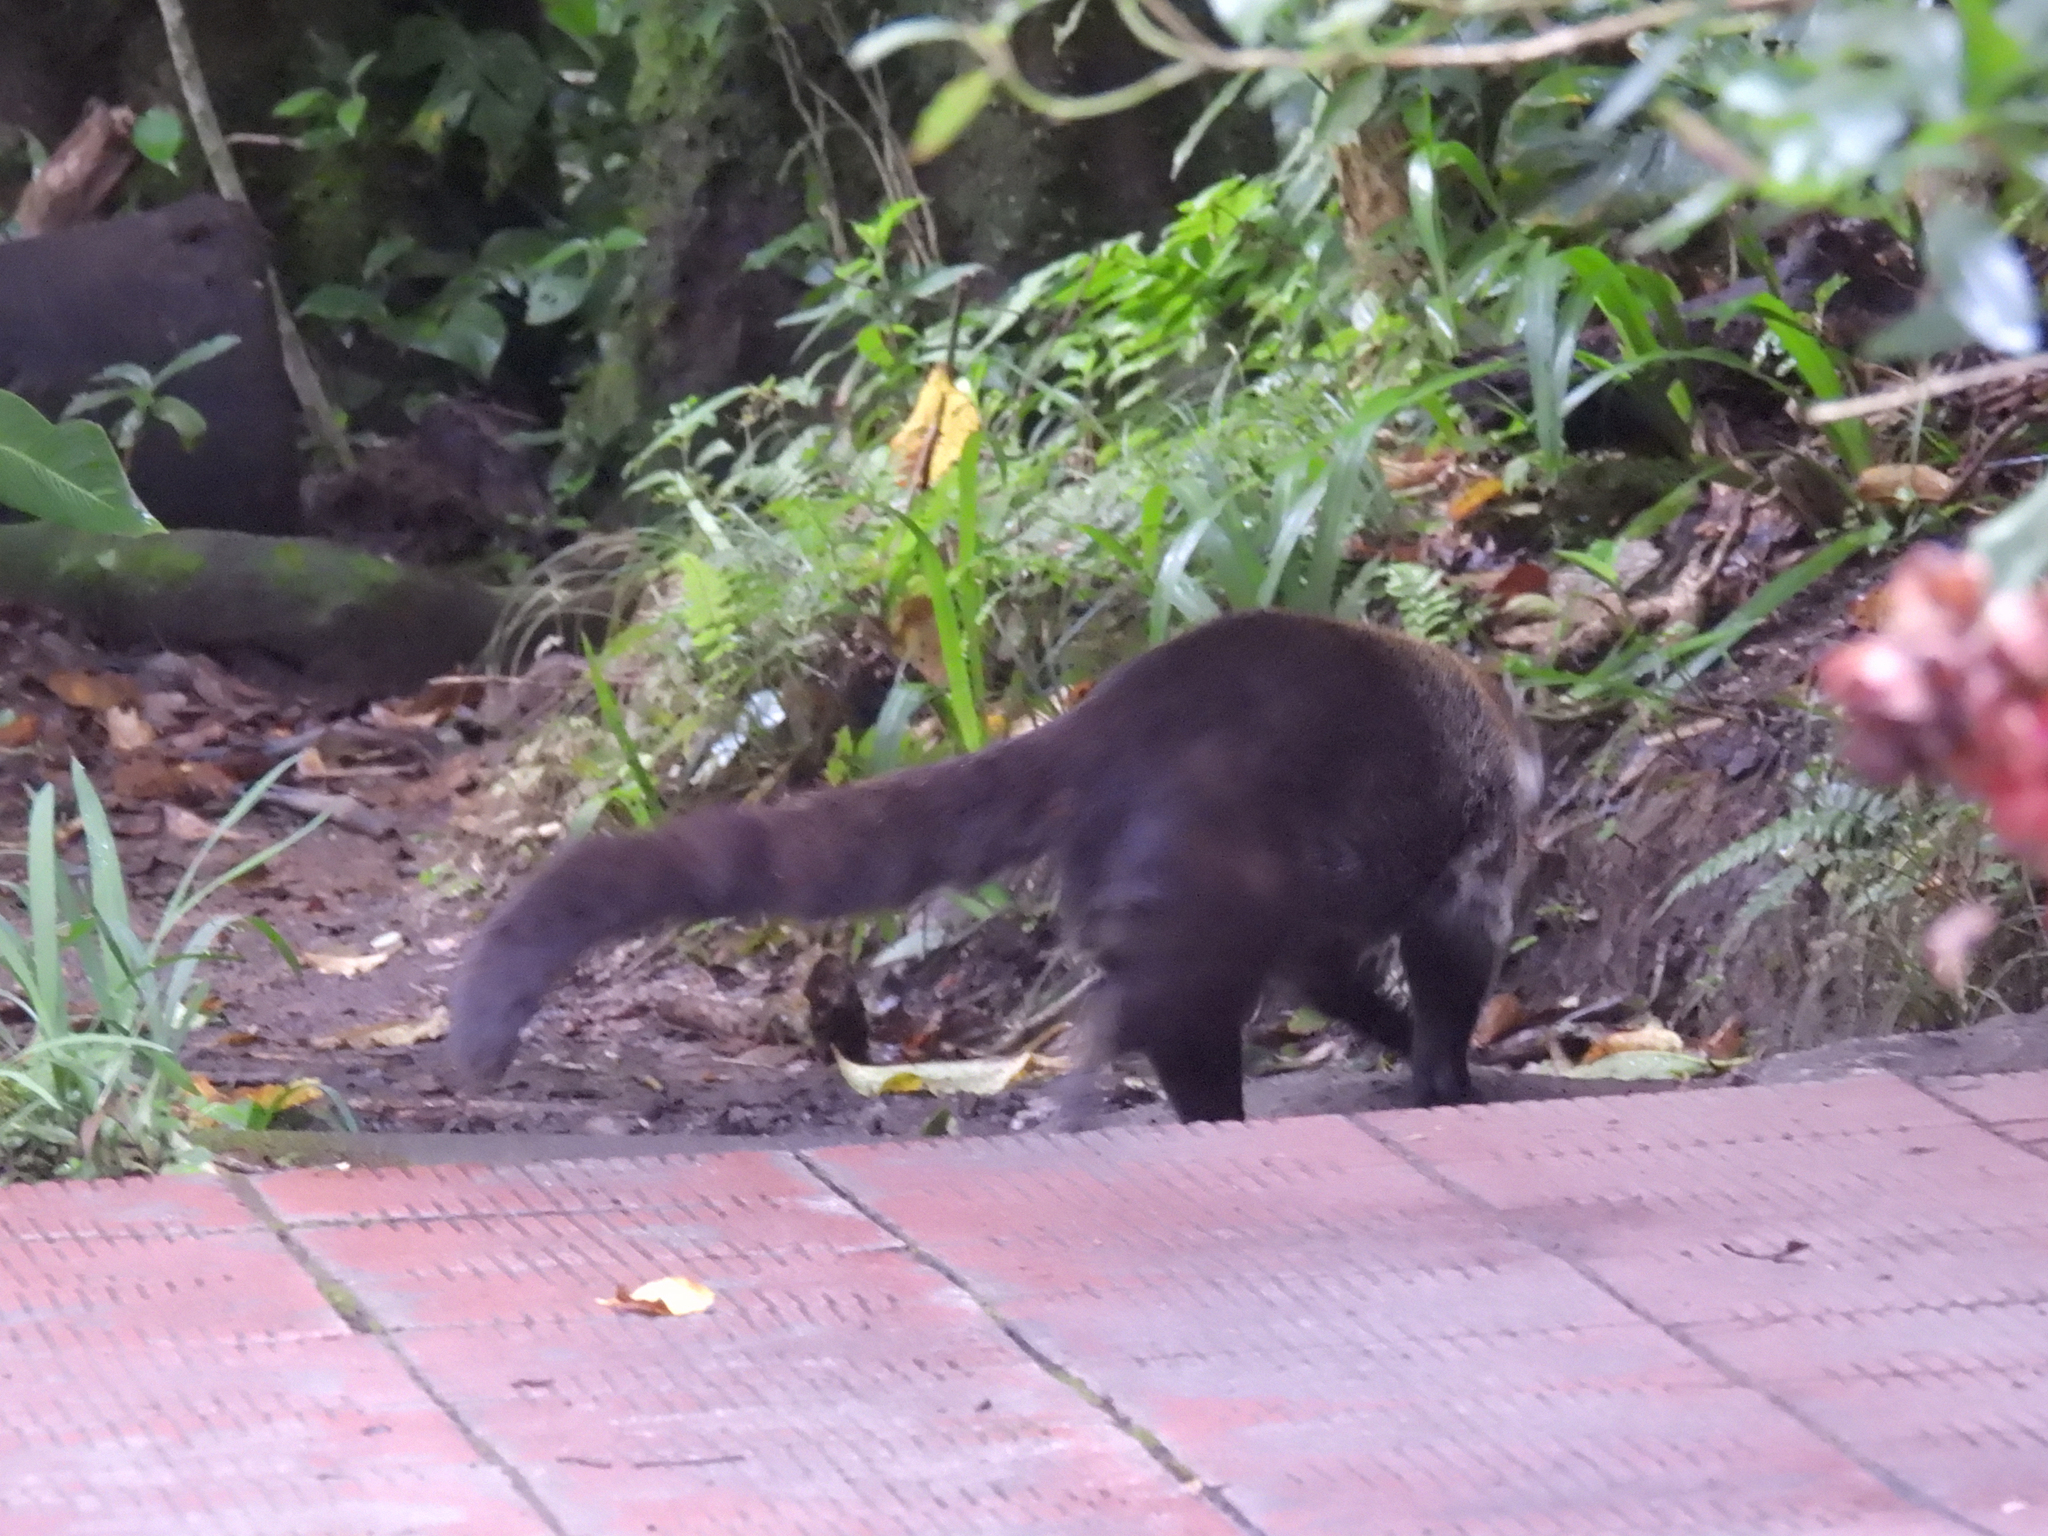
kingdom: Animalia
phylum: Chordata
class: Mammalia
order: Carnivora
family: Procyonidae
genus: Nasua
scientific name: Nasua narica
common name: White-nosed coati
